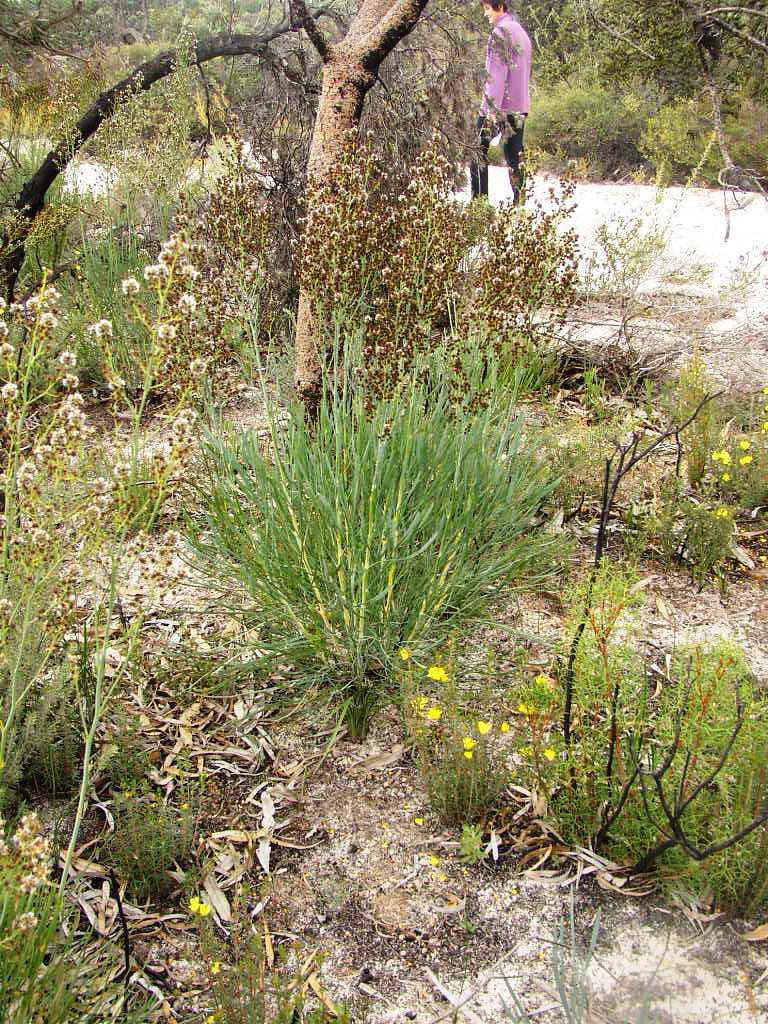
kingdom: Plantae
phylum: Tracheophyta
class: Magnoliopsida
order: Proteales
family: Proteaceae
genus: Stirlingia
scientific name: Stirlingia latifolia
